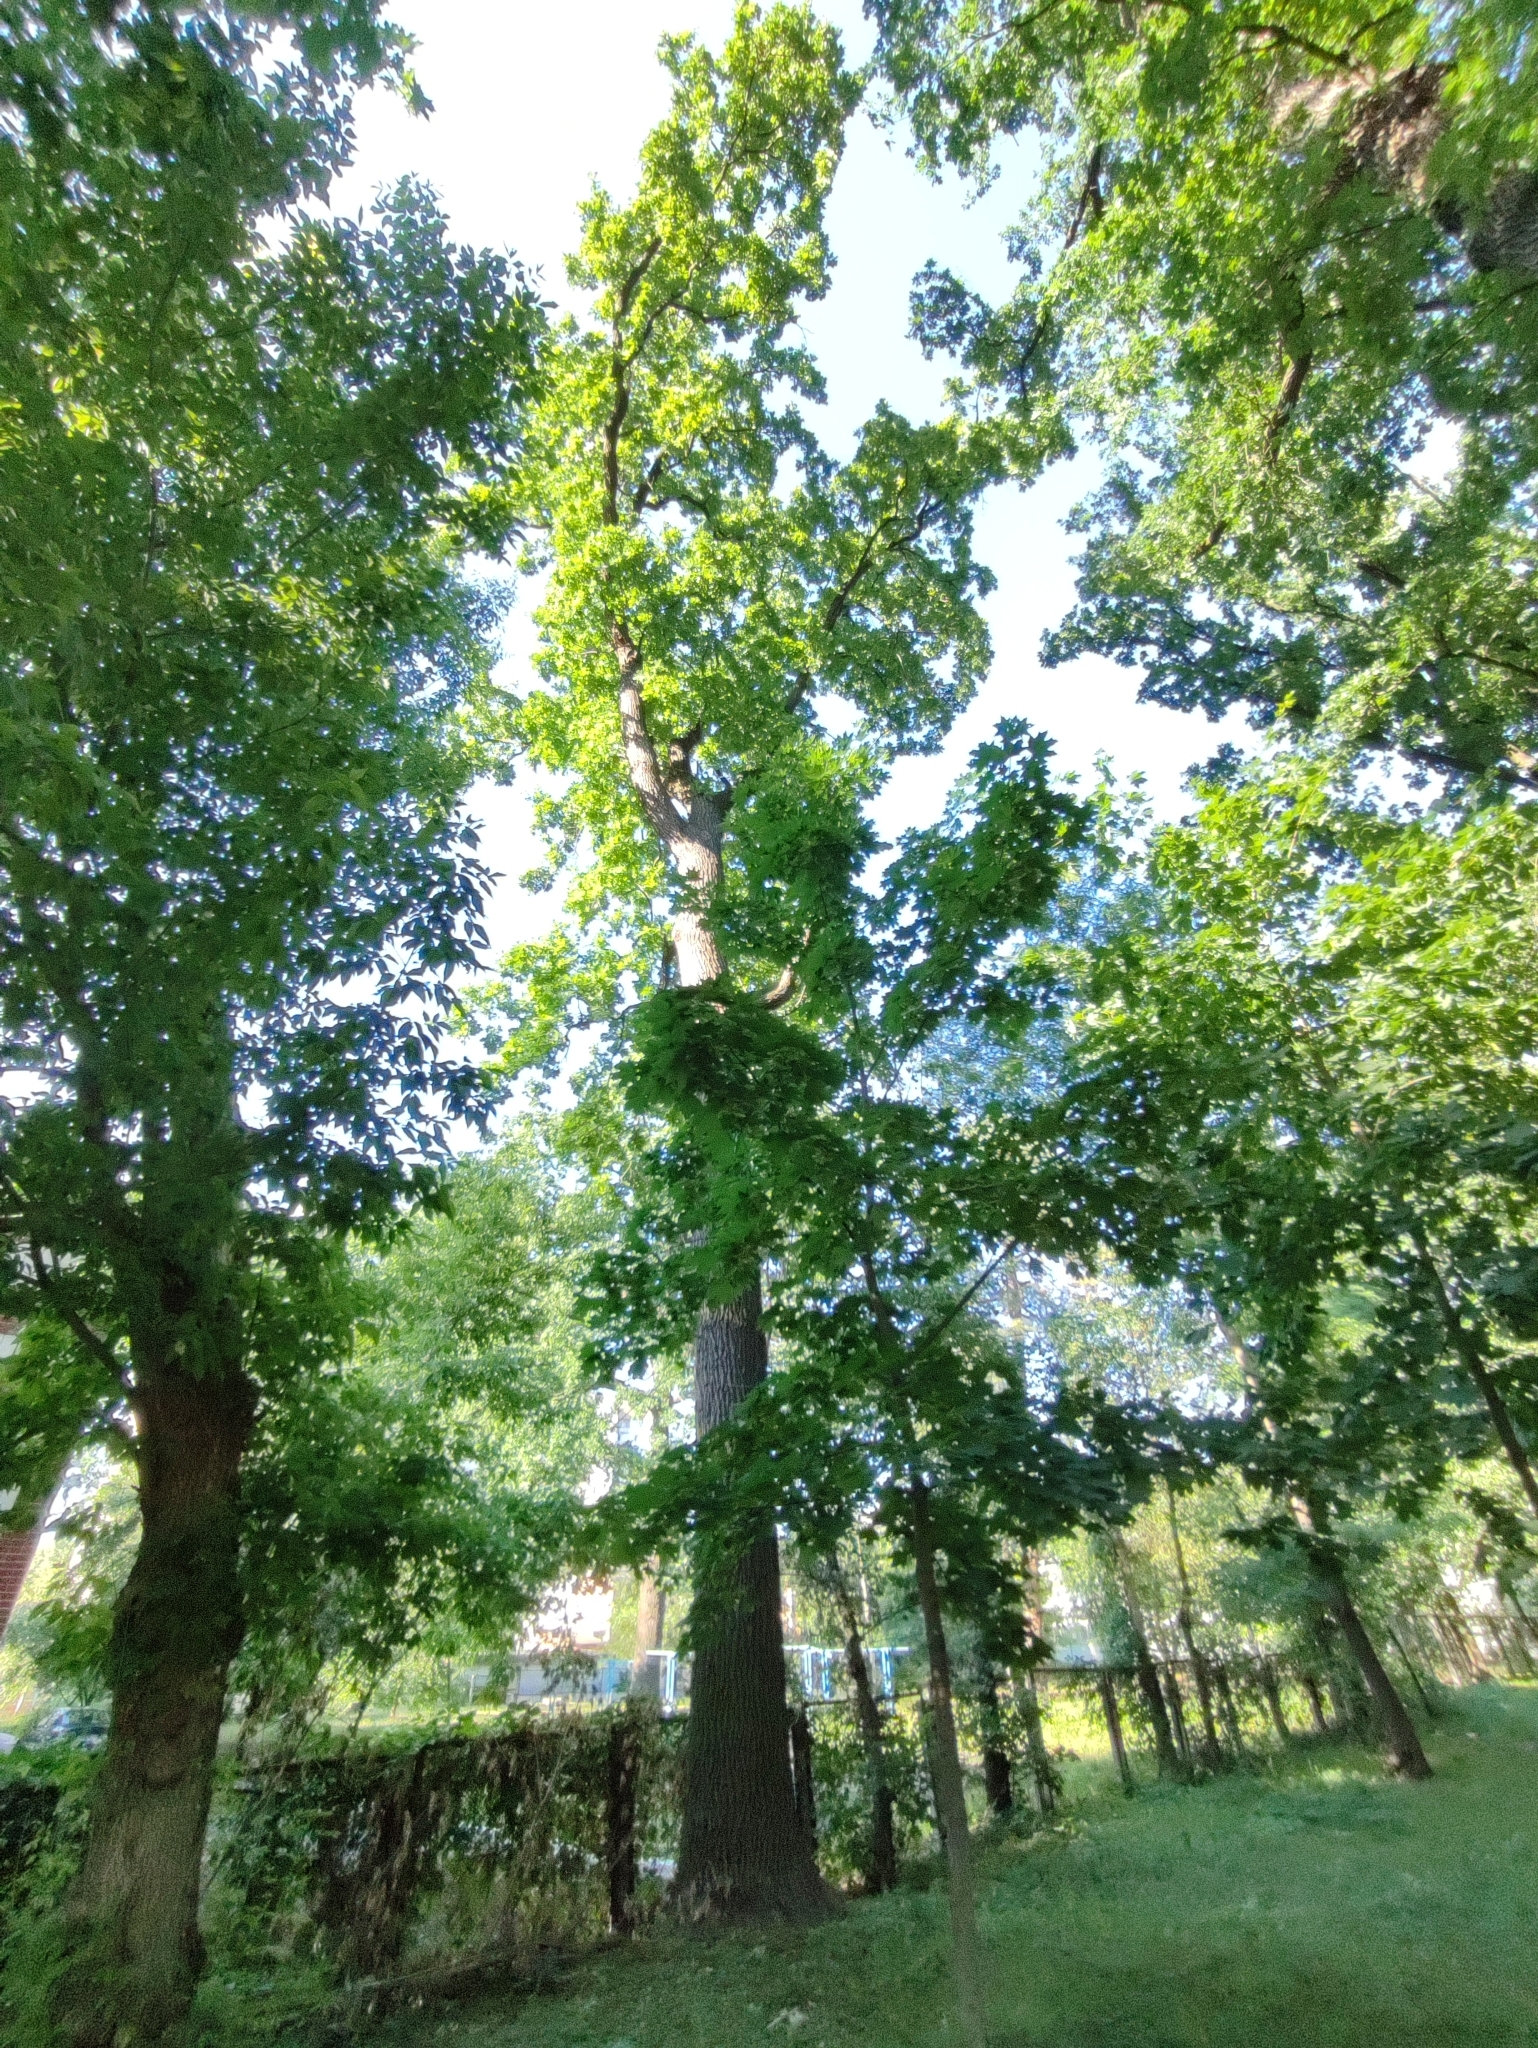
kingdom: Plantae
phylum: Tracheophyta
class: Magnoliopsida
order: Fagales
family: Fagaceae
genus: Quercus
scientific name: Quercus robur
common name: Pedunculate oak
